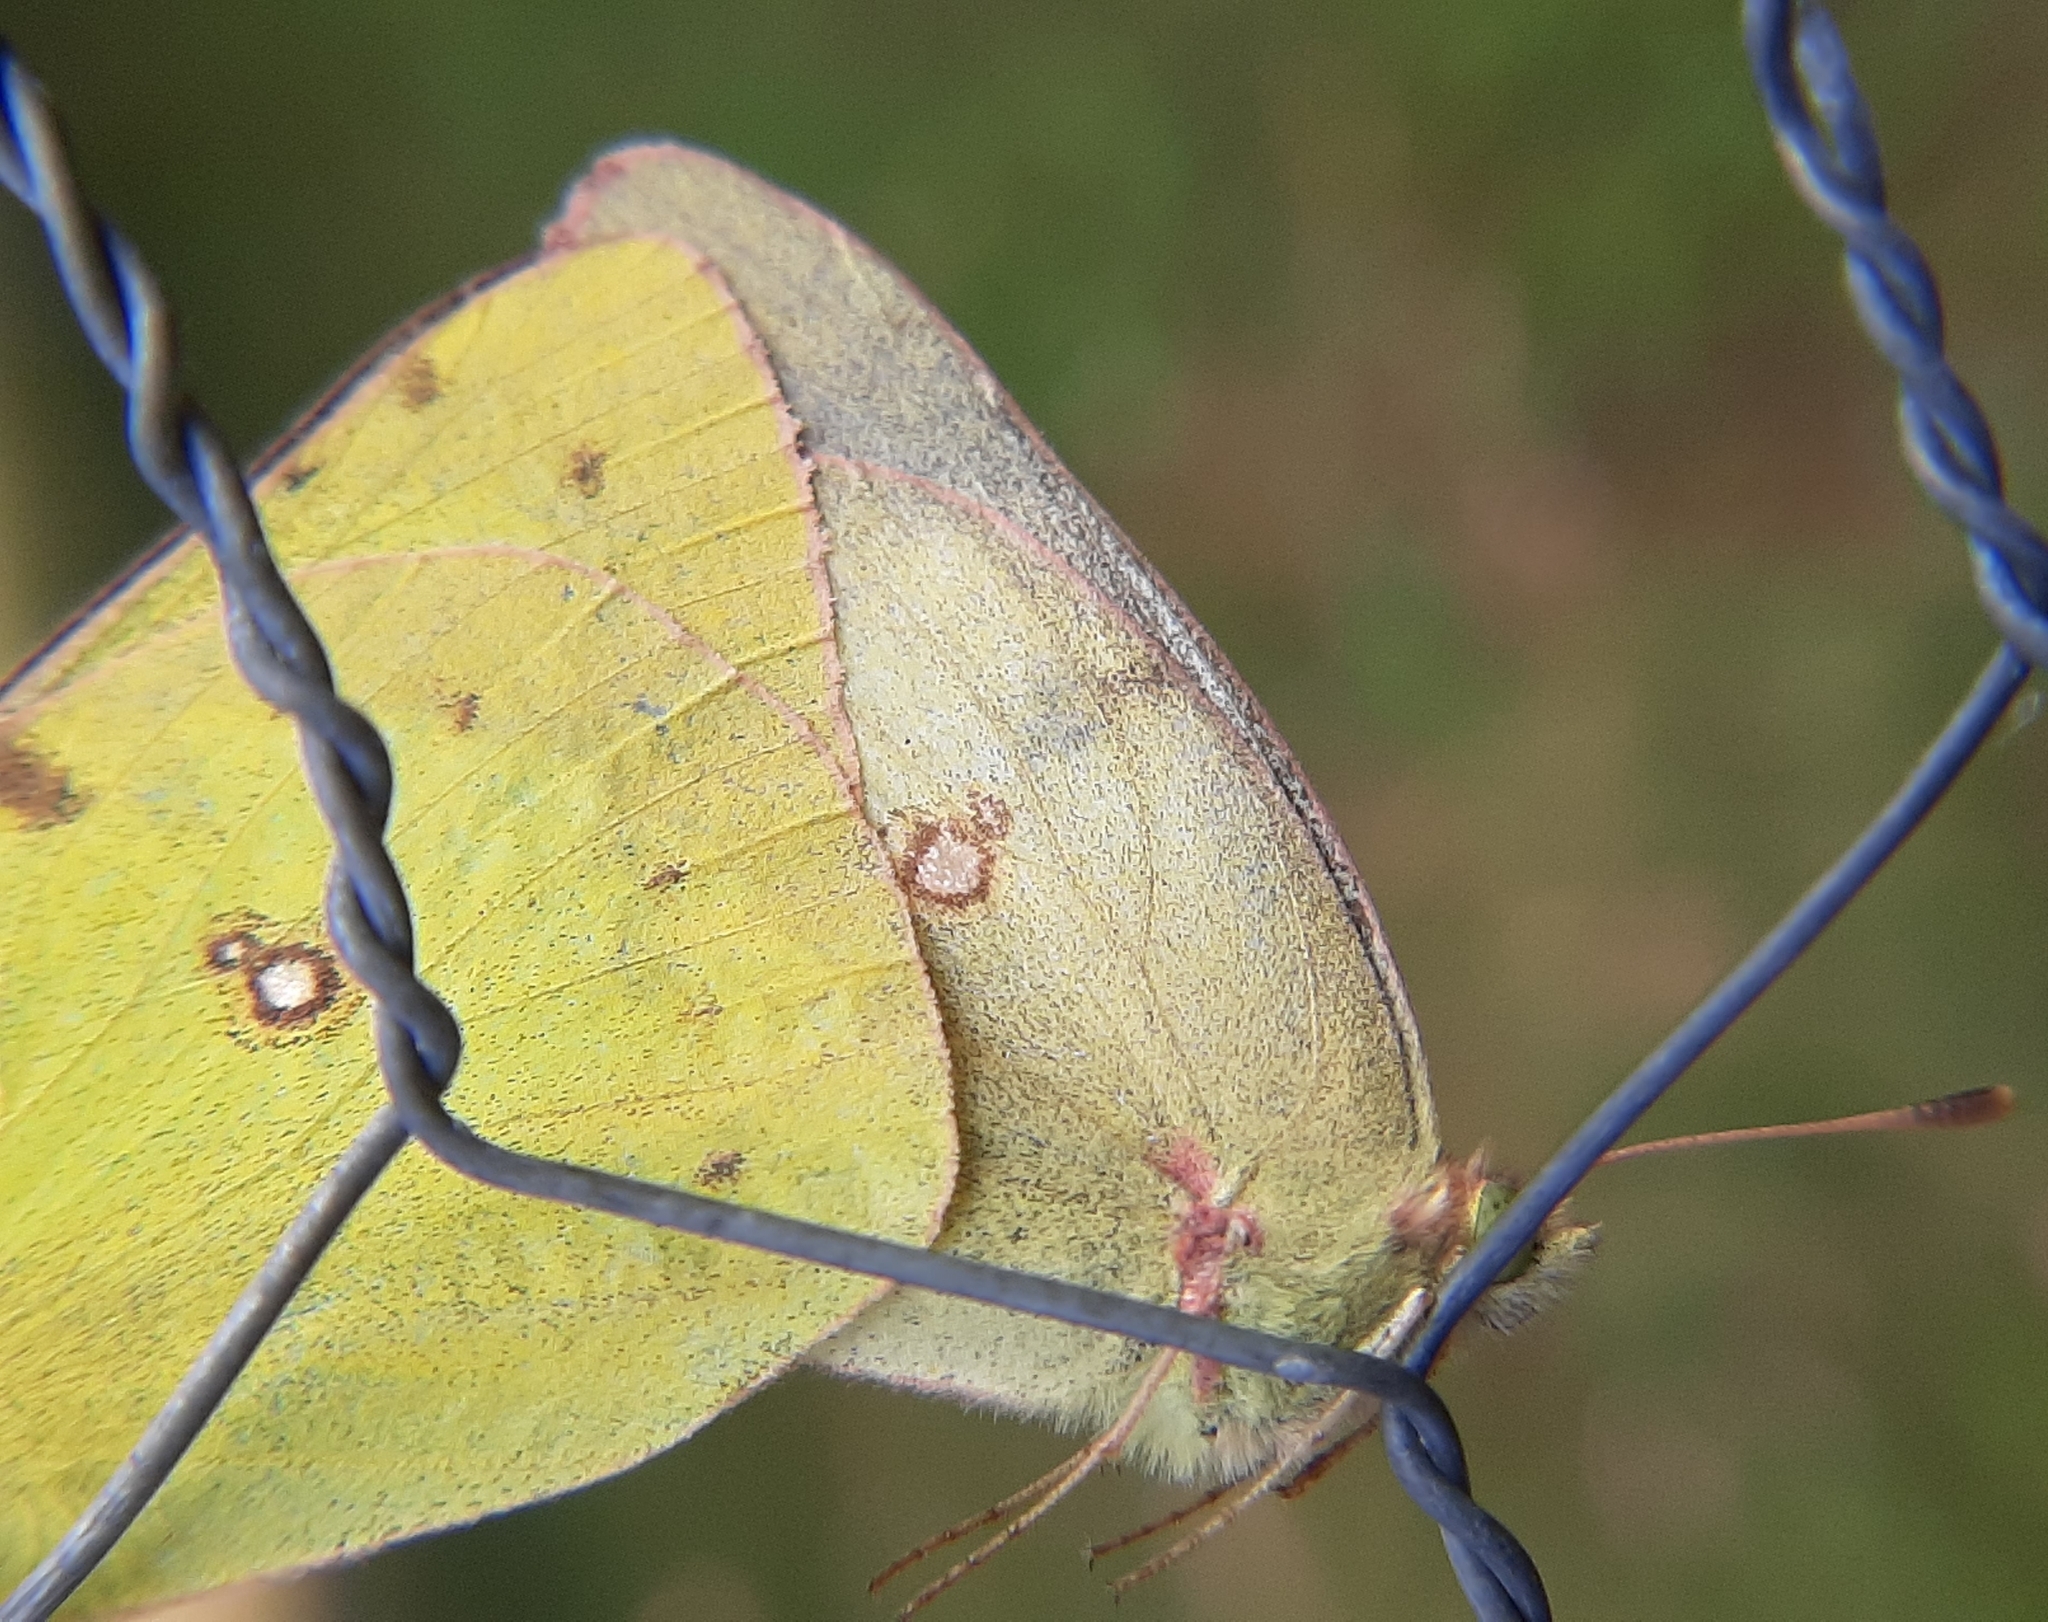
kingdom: Animalia
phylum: Arthropoda
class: Insecta
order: Lepidoptera
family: Pieridae
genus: Colias
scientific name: Colias philodice
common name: Clouded sulphur
